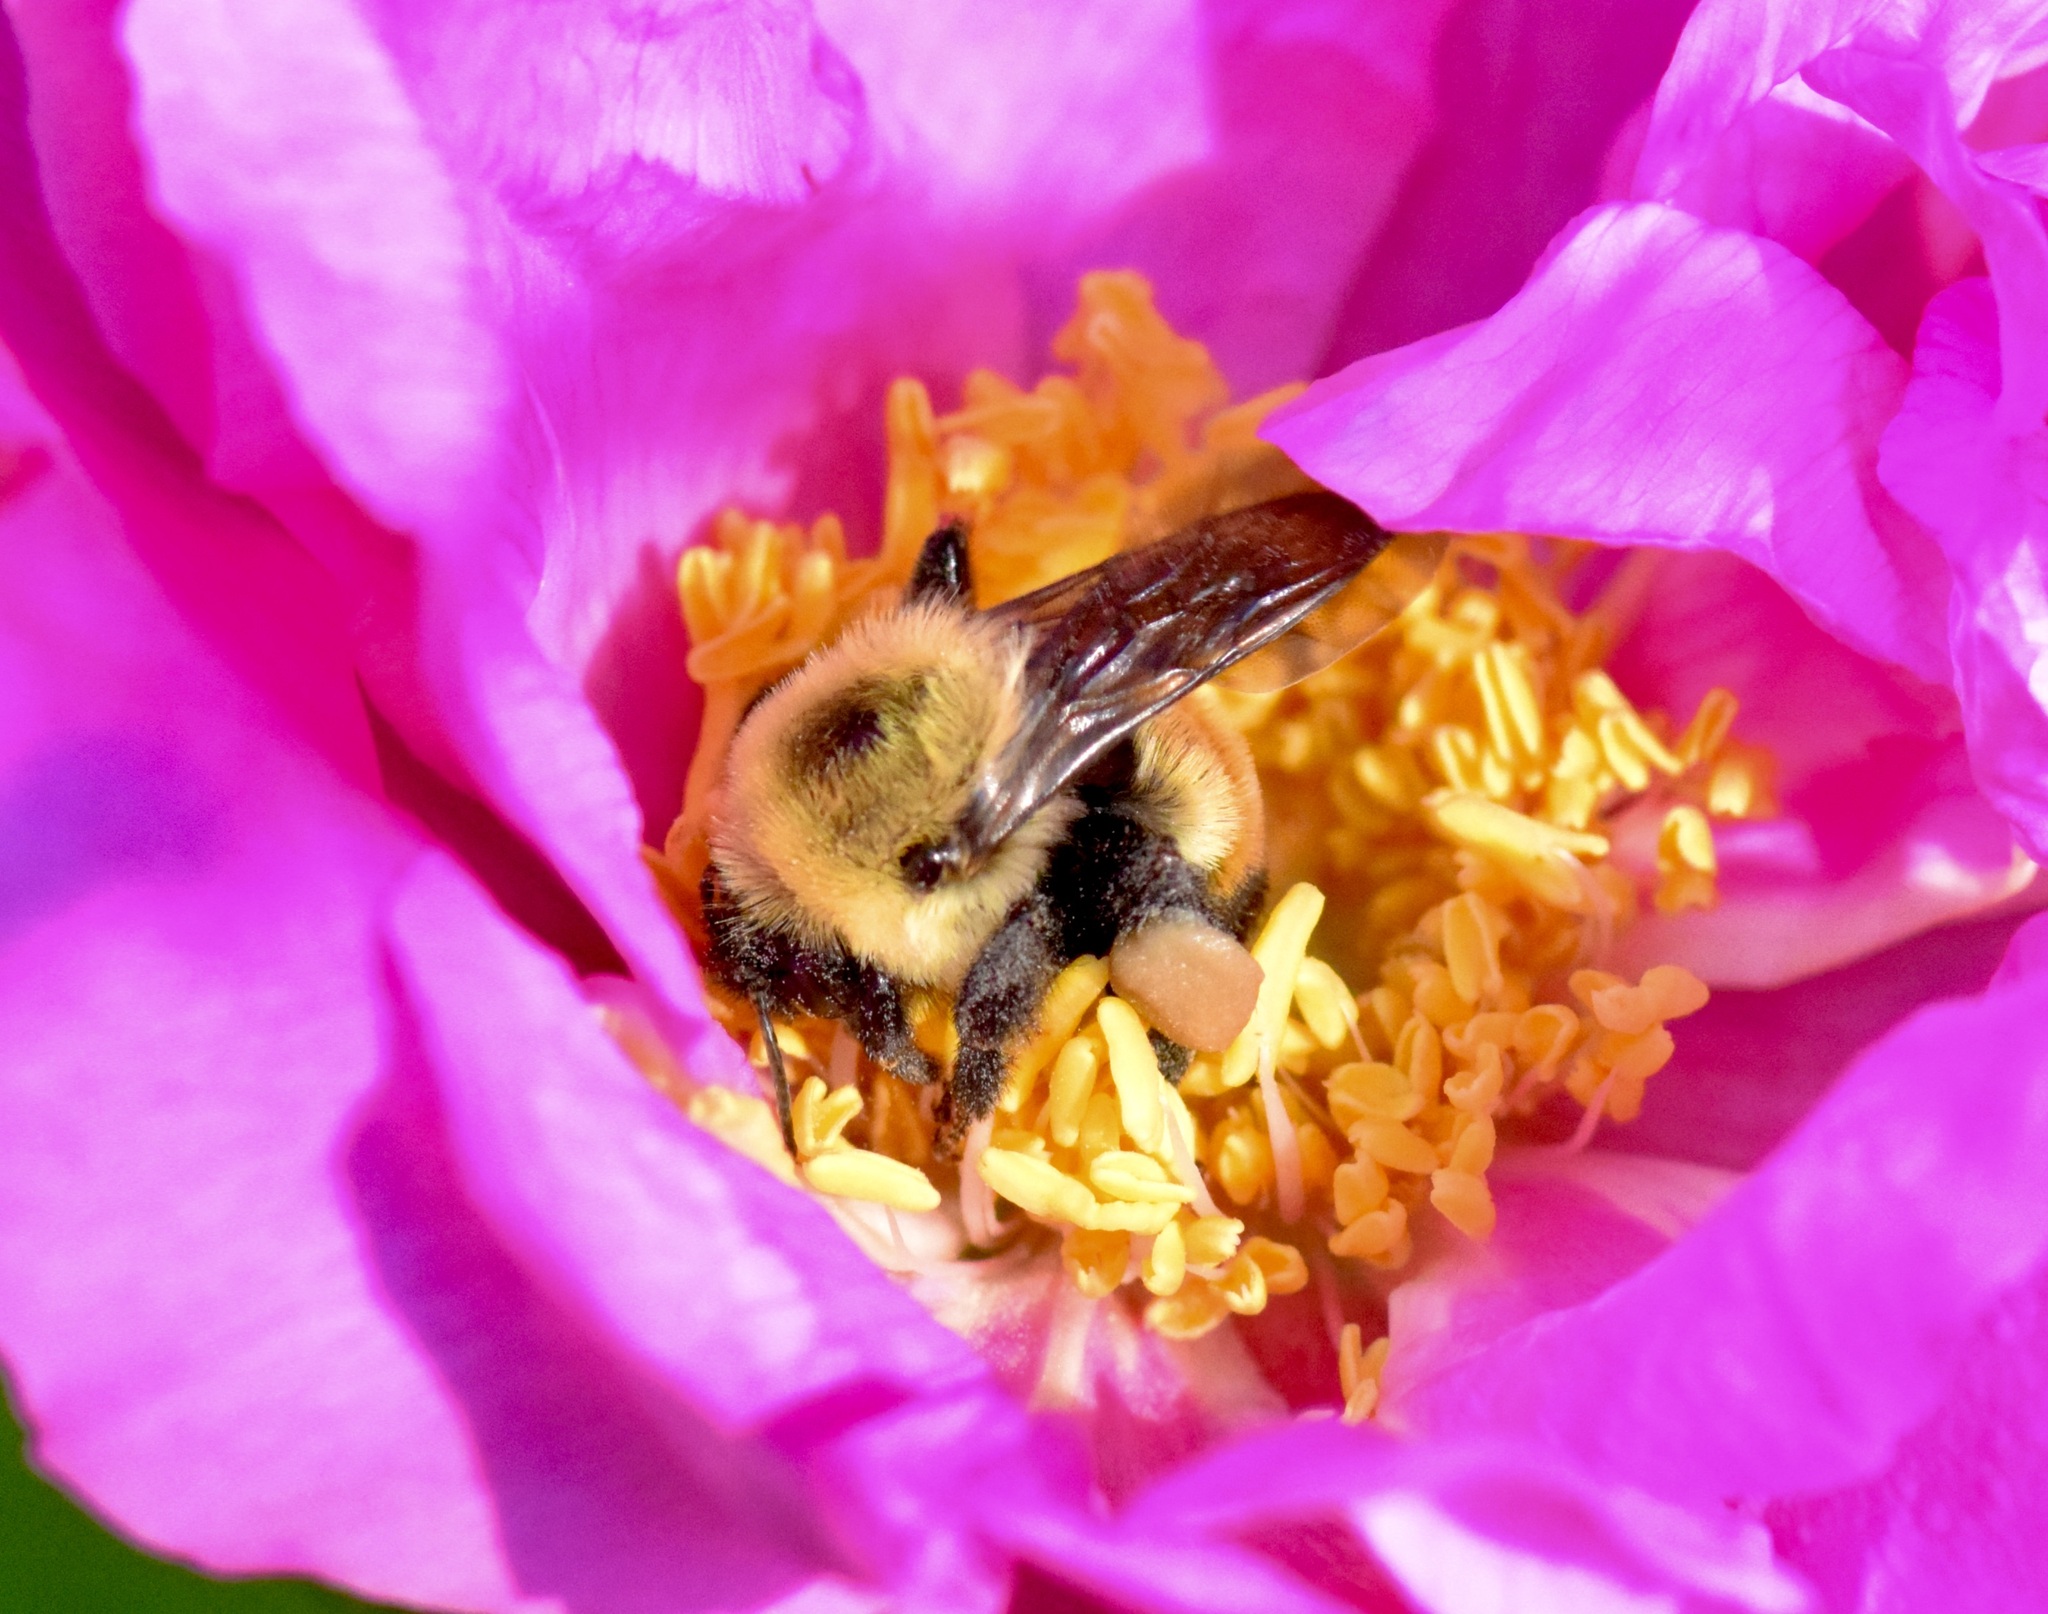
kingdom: Animalia
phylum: Arthropoda
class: Insecta
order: Hymenoptera
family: Apidae
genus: Bombus
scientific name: Bombus griseocollis
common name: Brown-belted bumble bee
